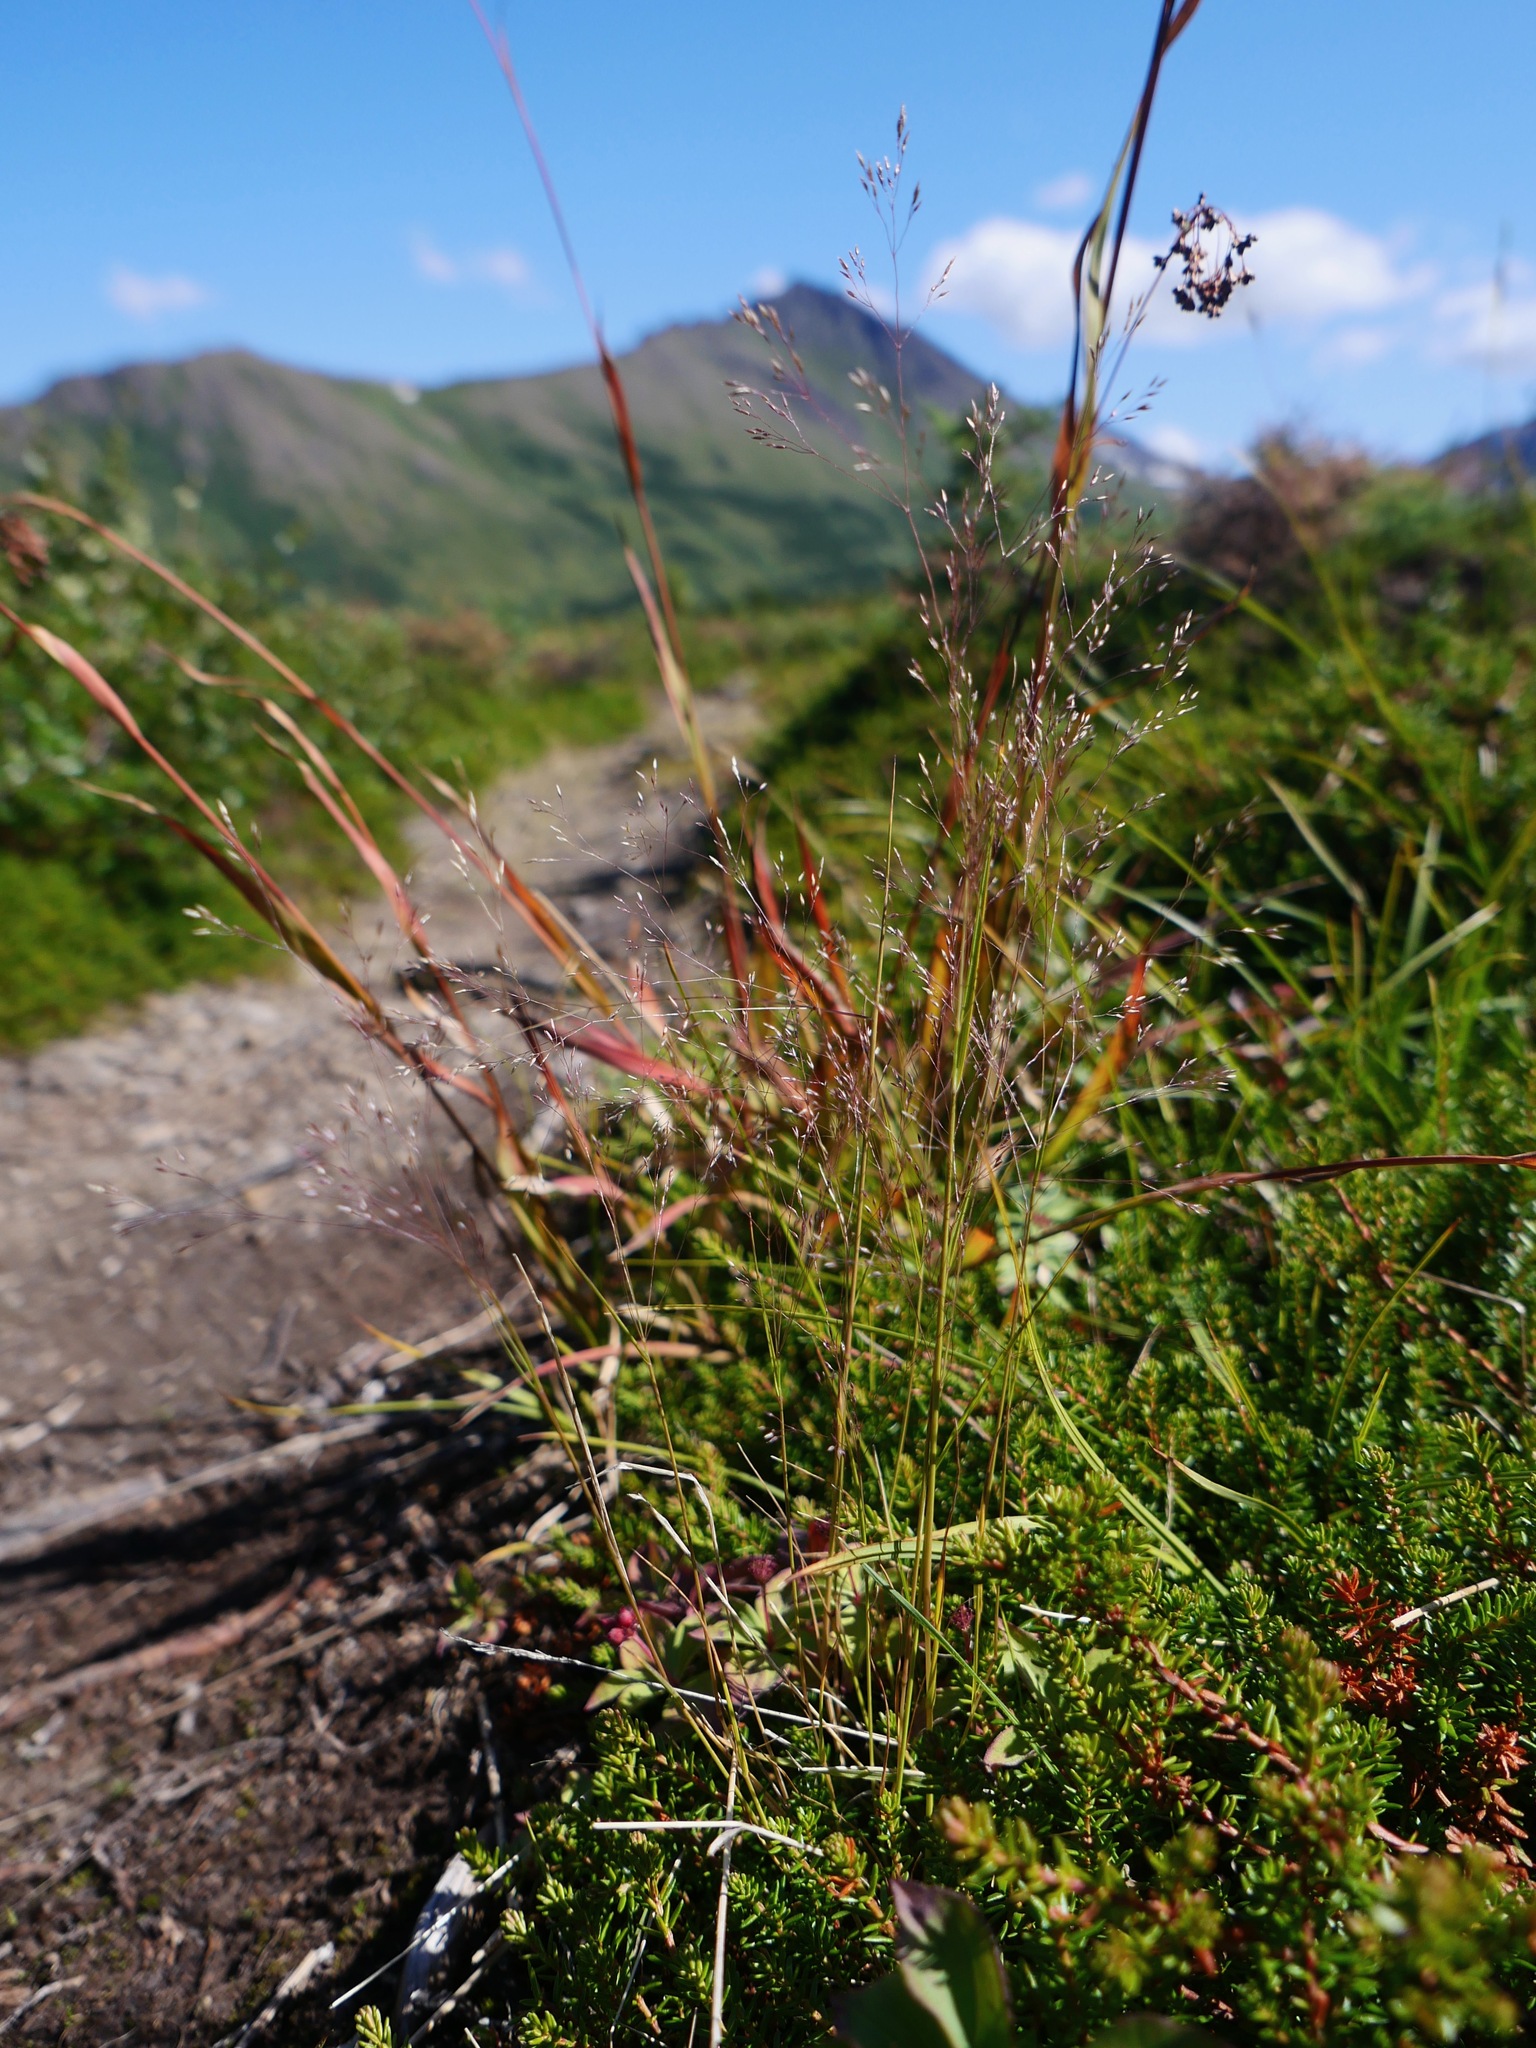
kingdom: Plantae
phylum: Tracheophyta
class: Liliopsida
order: Poales
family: Poaceae
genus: Aira
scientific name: Aira caryophyllea
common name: Silver hairgrass
